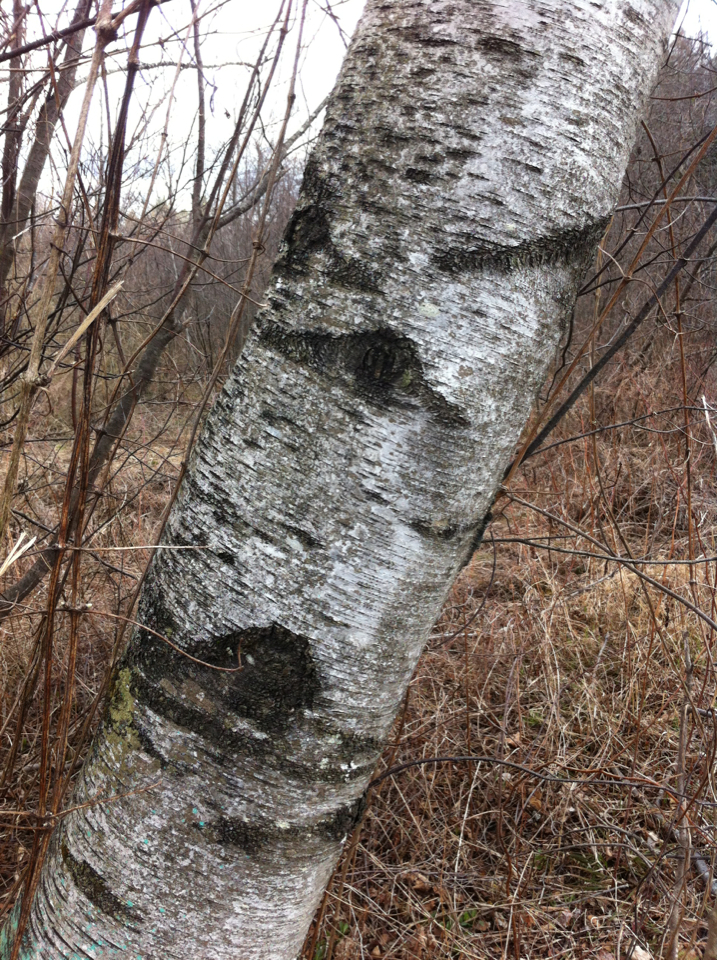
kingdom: Plantae
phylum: Tracheophyta
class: Magnoliopsida
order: Fagales
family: Betulaceae
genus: Betula
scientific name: Betula populifolia
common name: Fire birch
